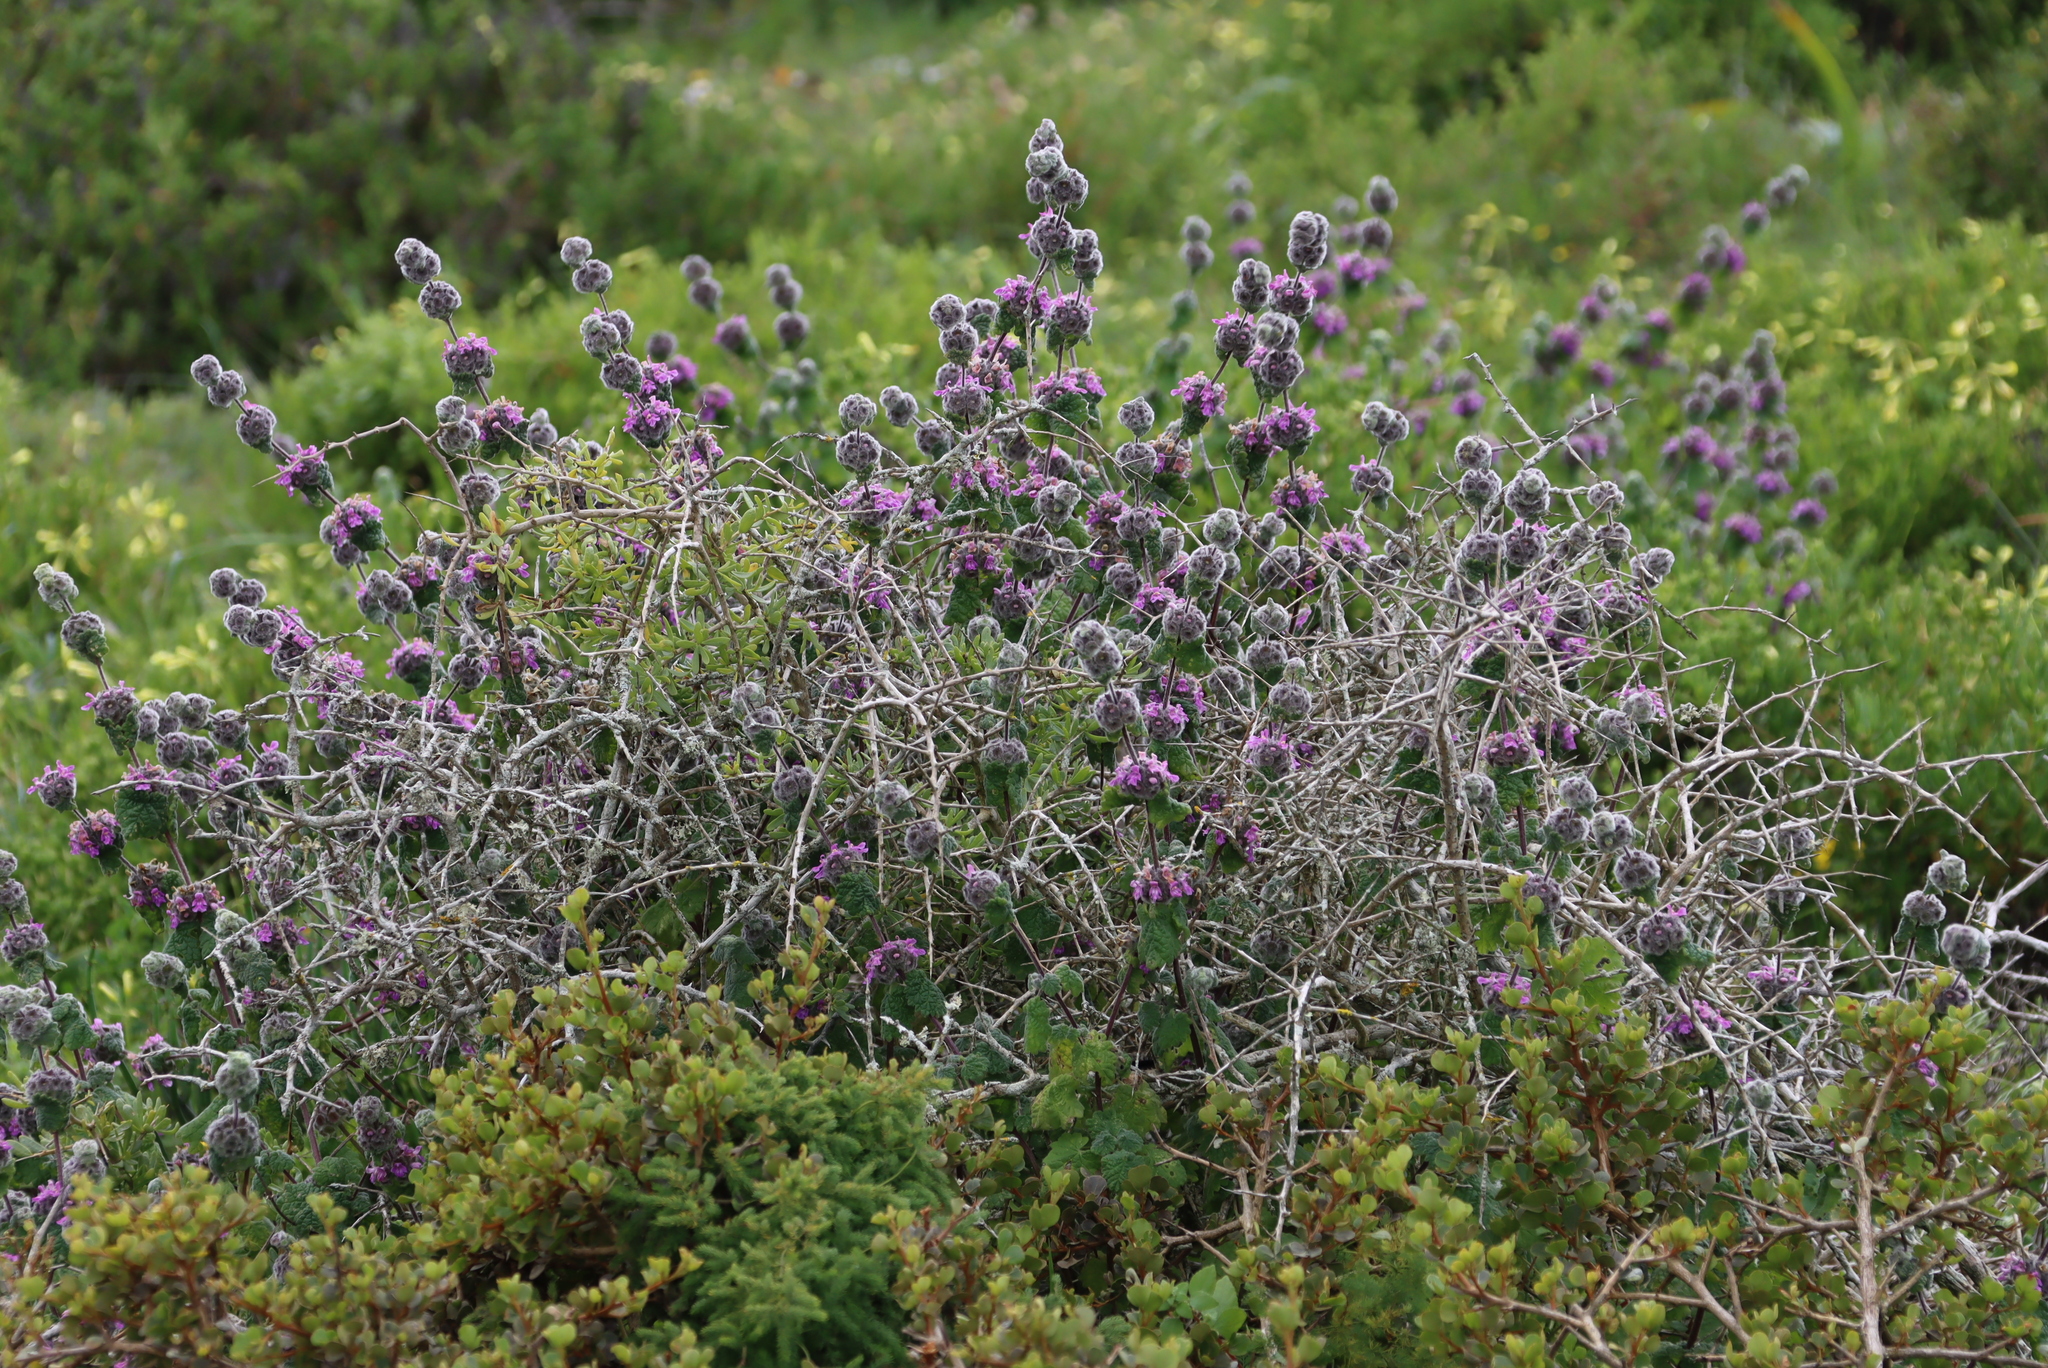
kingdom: Plantae
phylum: Tracheophyta
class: Magnoliopsida
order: Lamiales
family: Lamiaceae
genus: Pseudodictamnus
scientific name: Pseudodictamnus africanus
